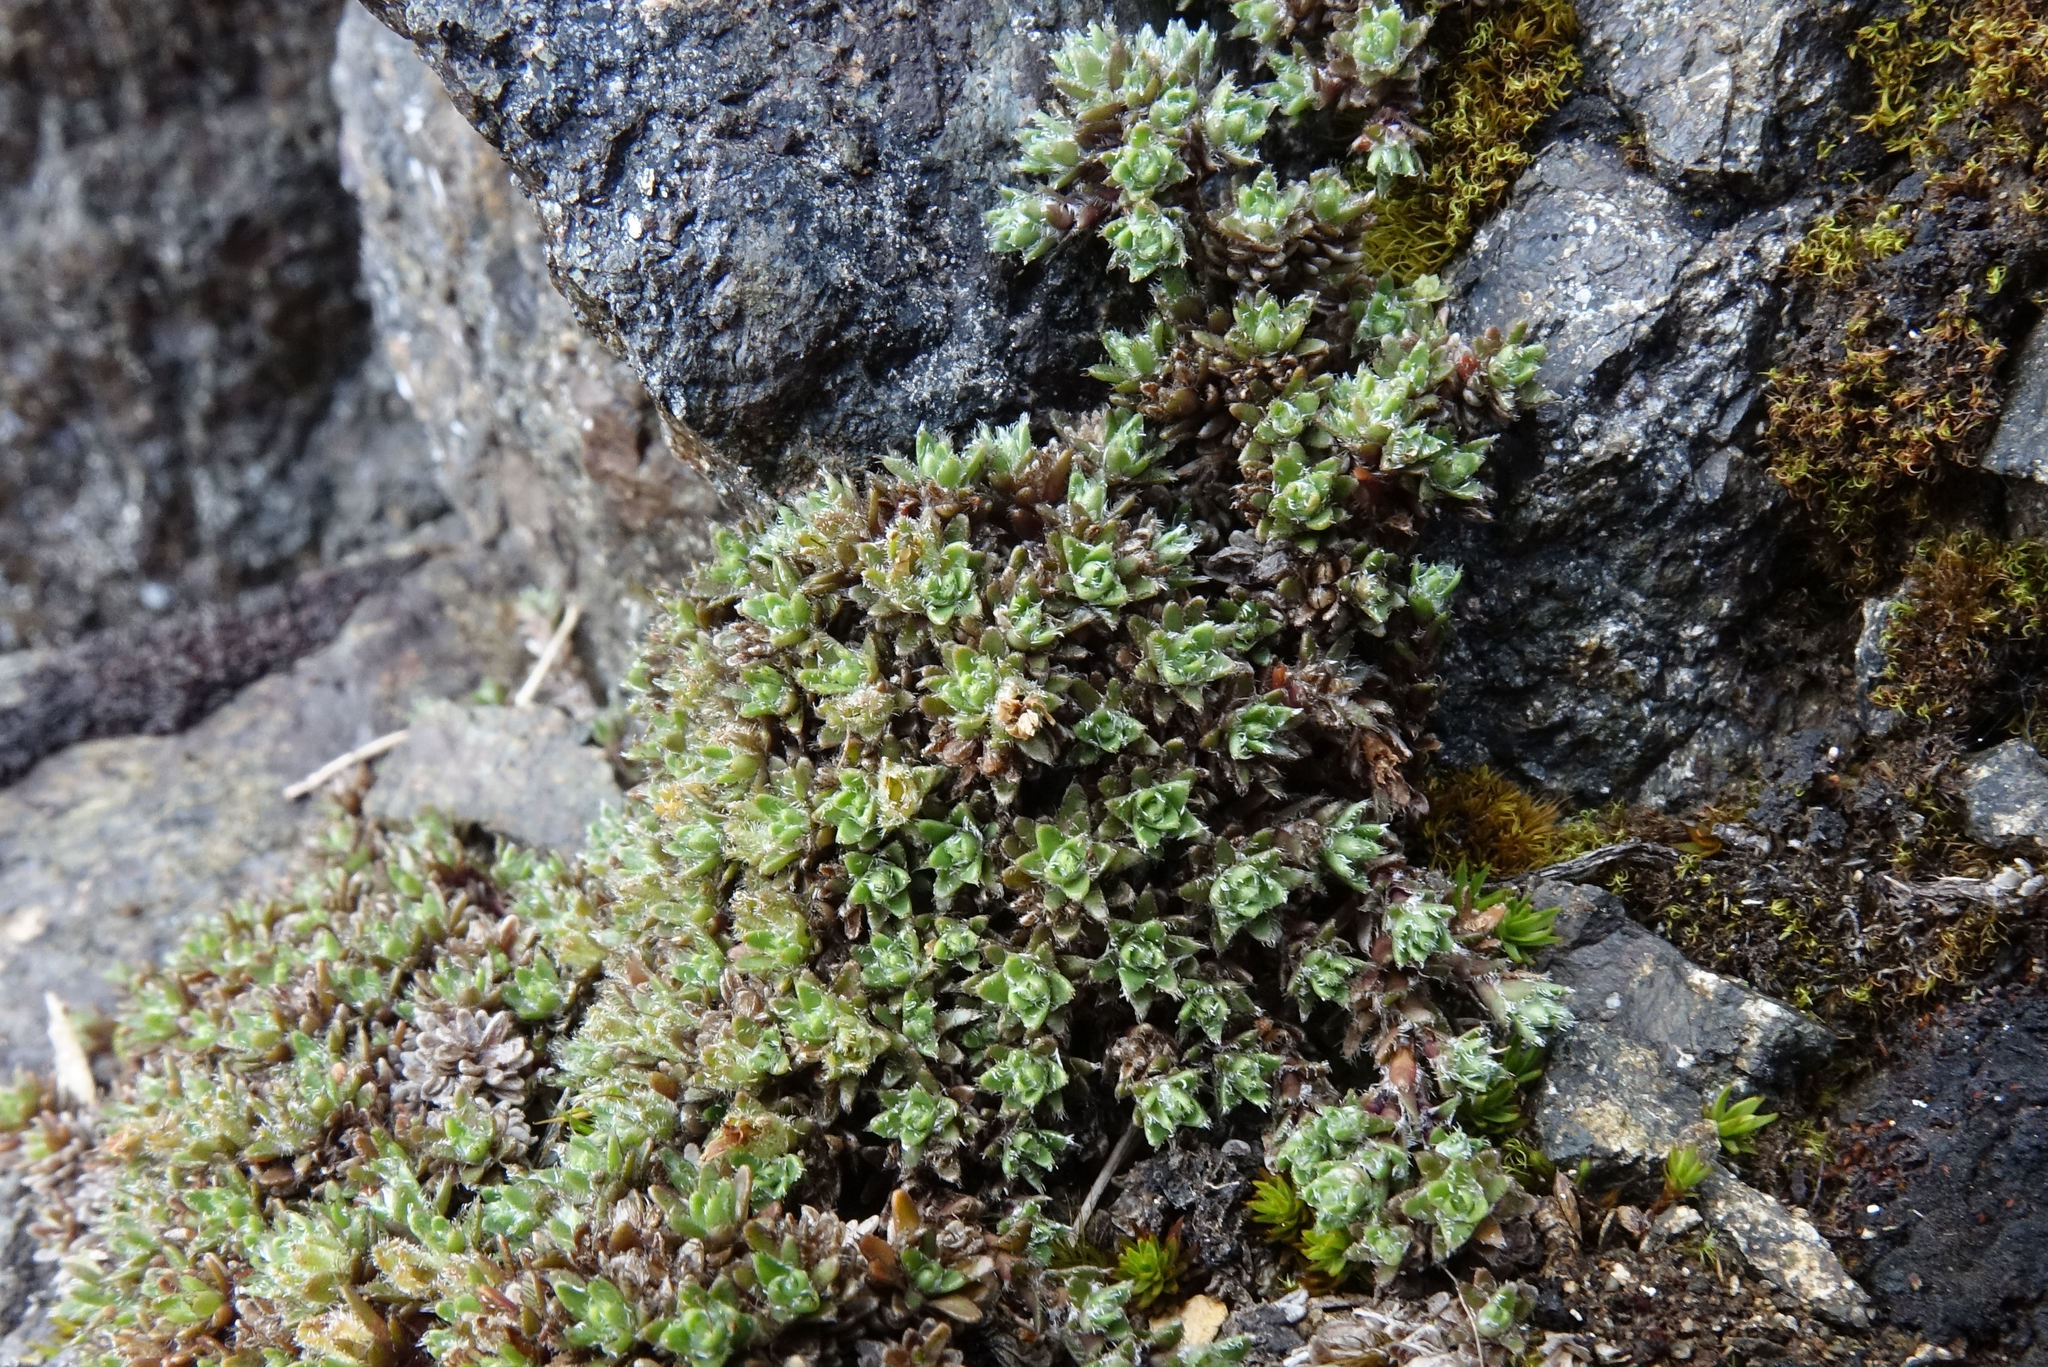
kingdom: Plantae
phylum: Tracheophyta
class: Magnoliopsida
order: Lamiales
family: Plantaginaceae
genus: Veronica
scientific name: Veronica ciliolata
